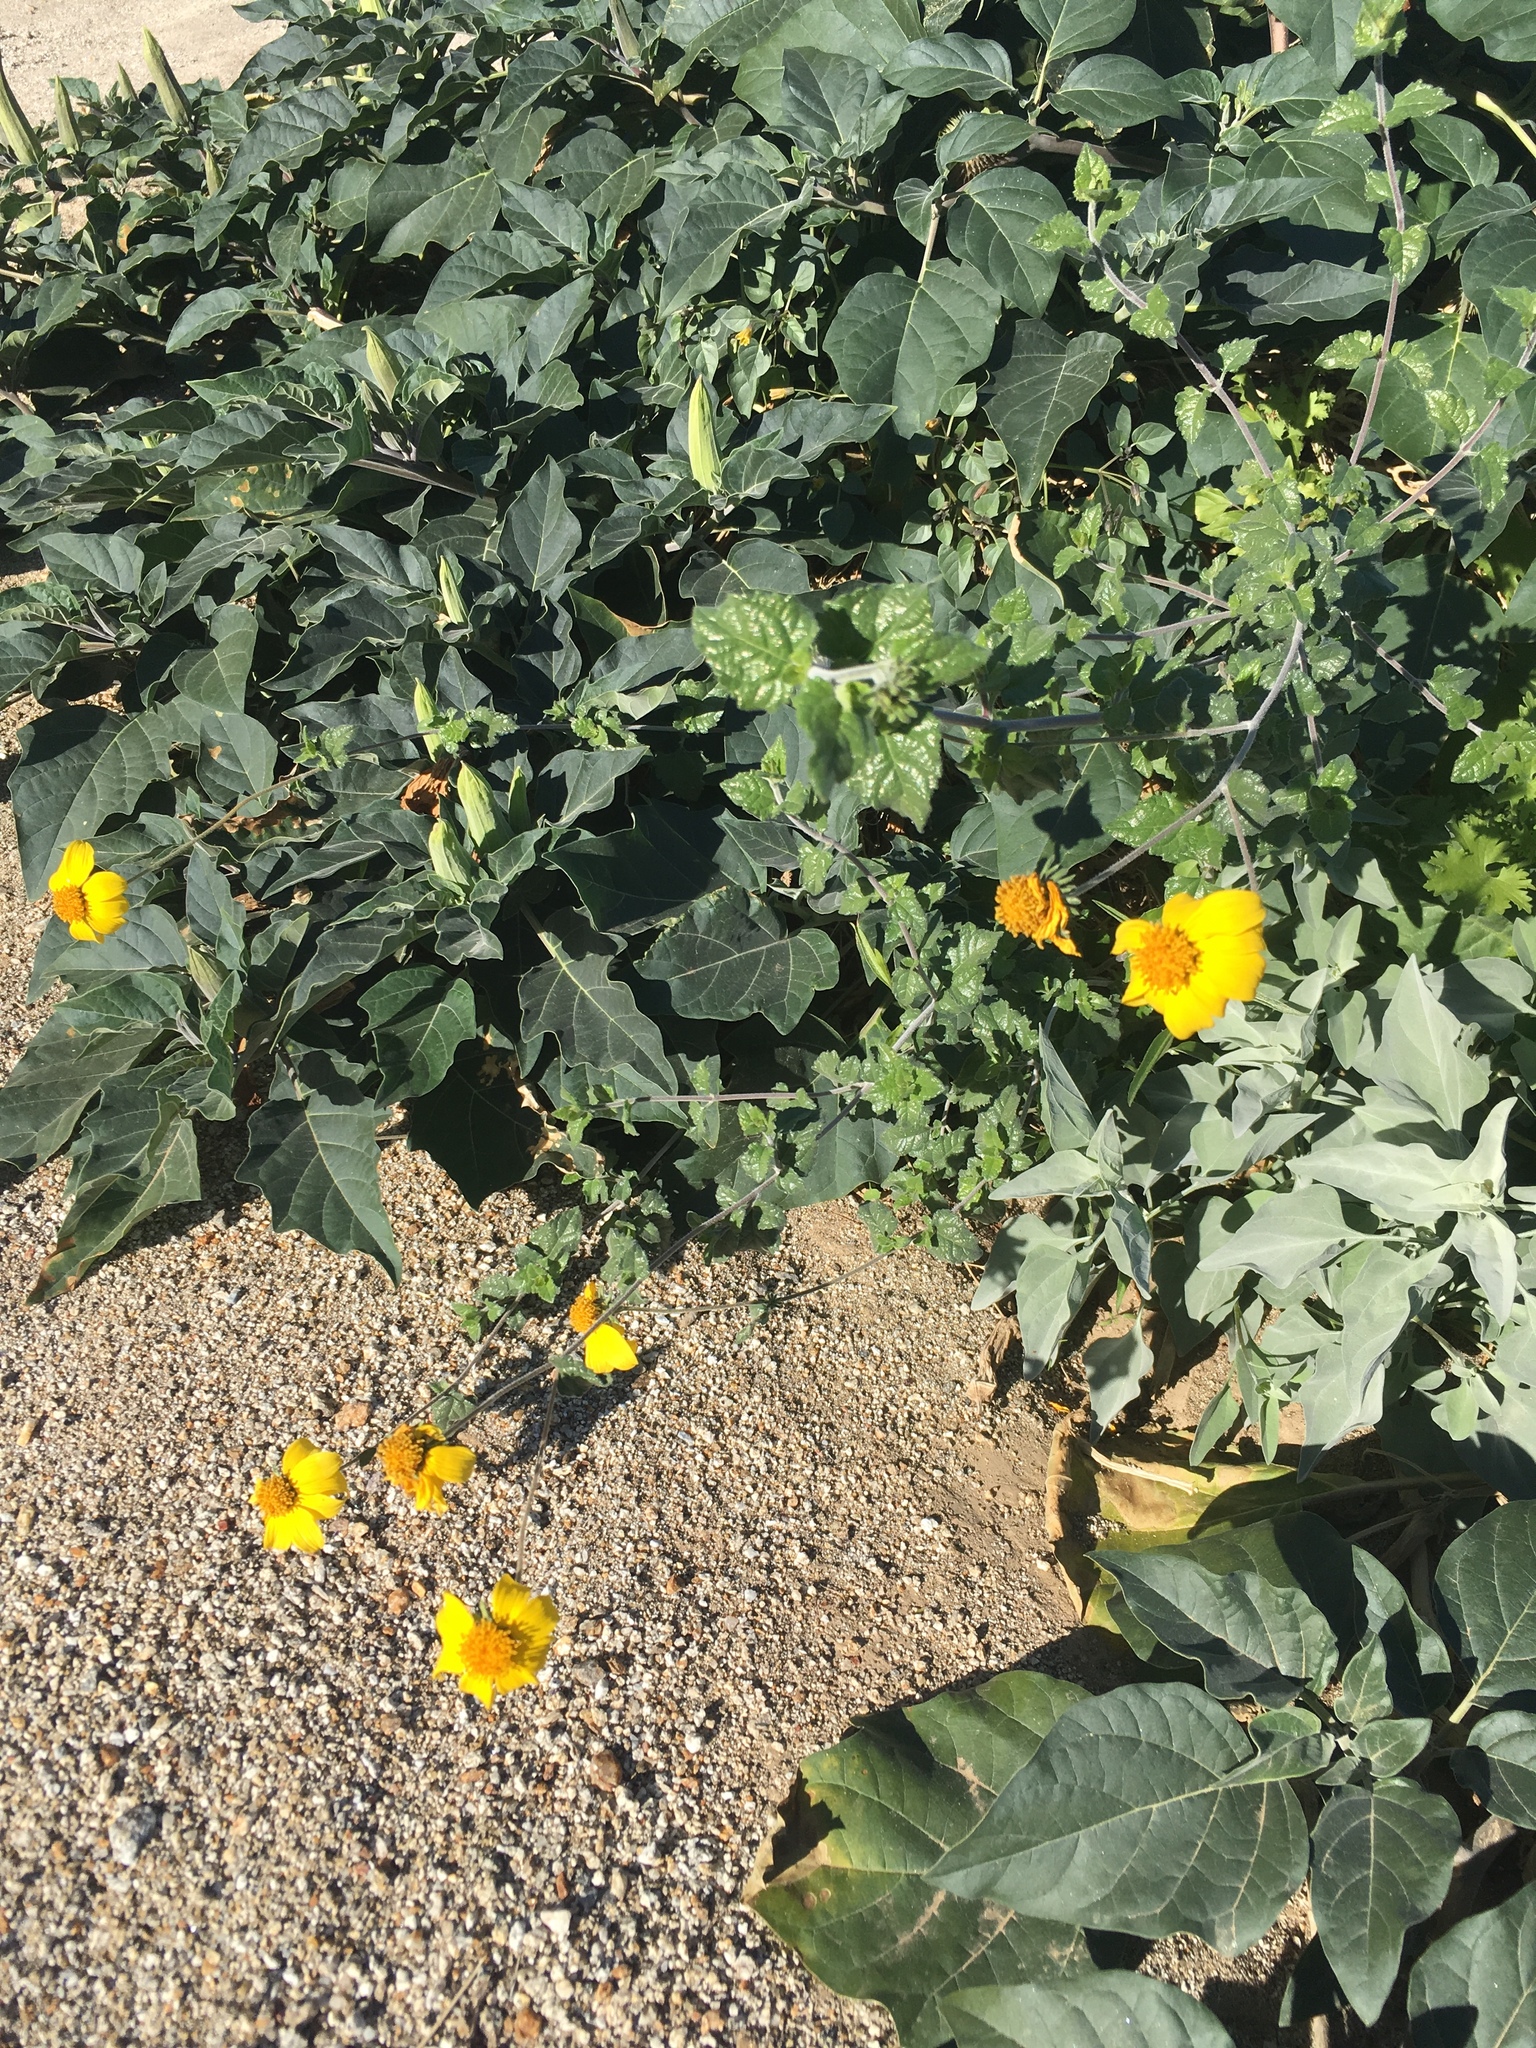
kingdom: Plantae
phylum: Tracheophyta
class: Magnoliopsida
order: Asterales
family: Asteraceae
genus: Bahiopsis
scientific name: Bahiopsis parishii
